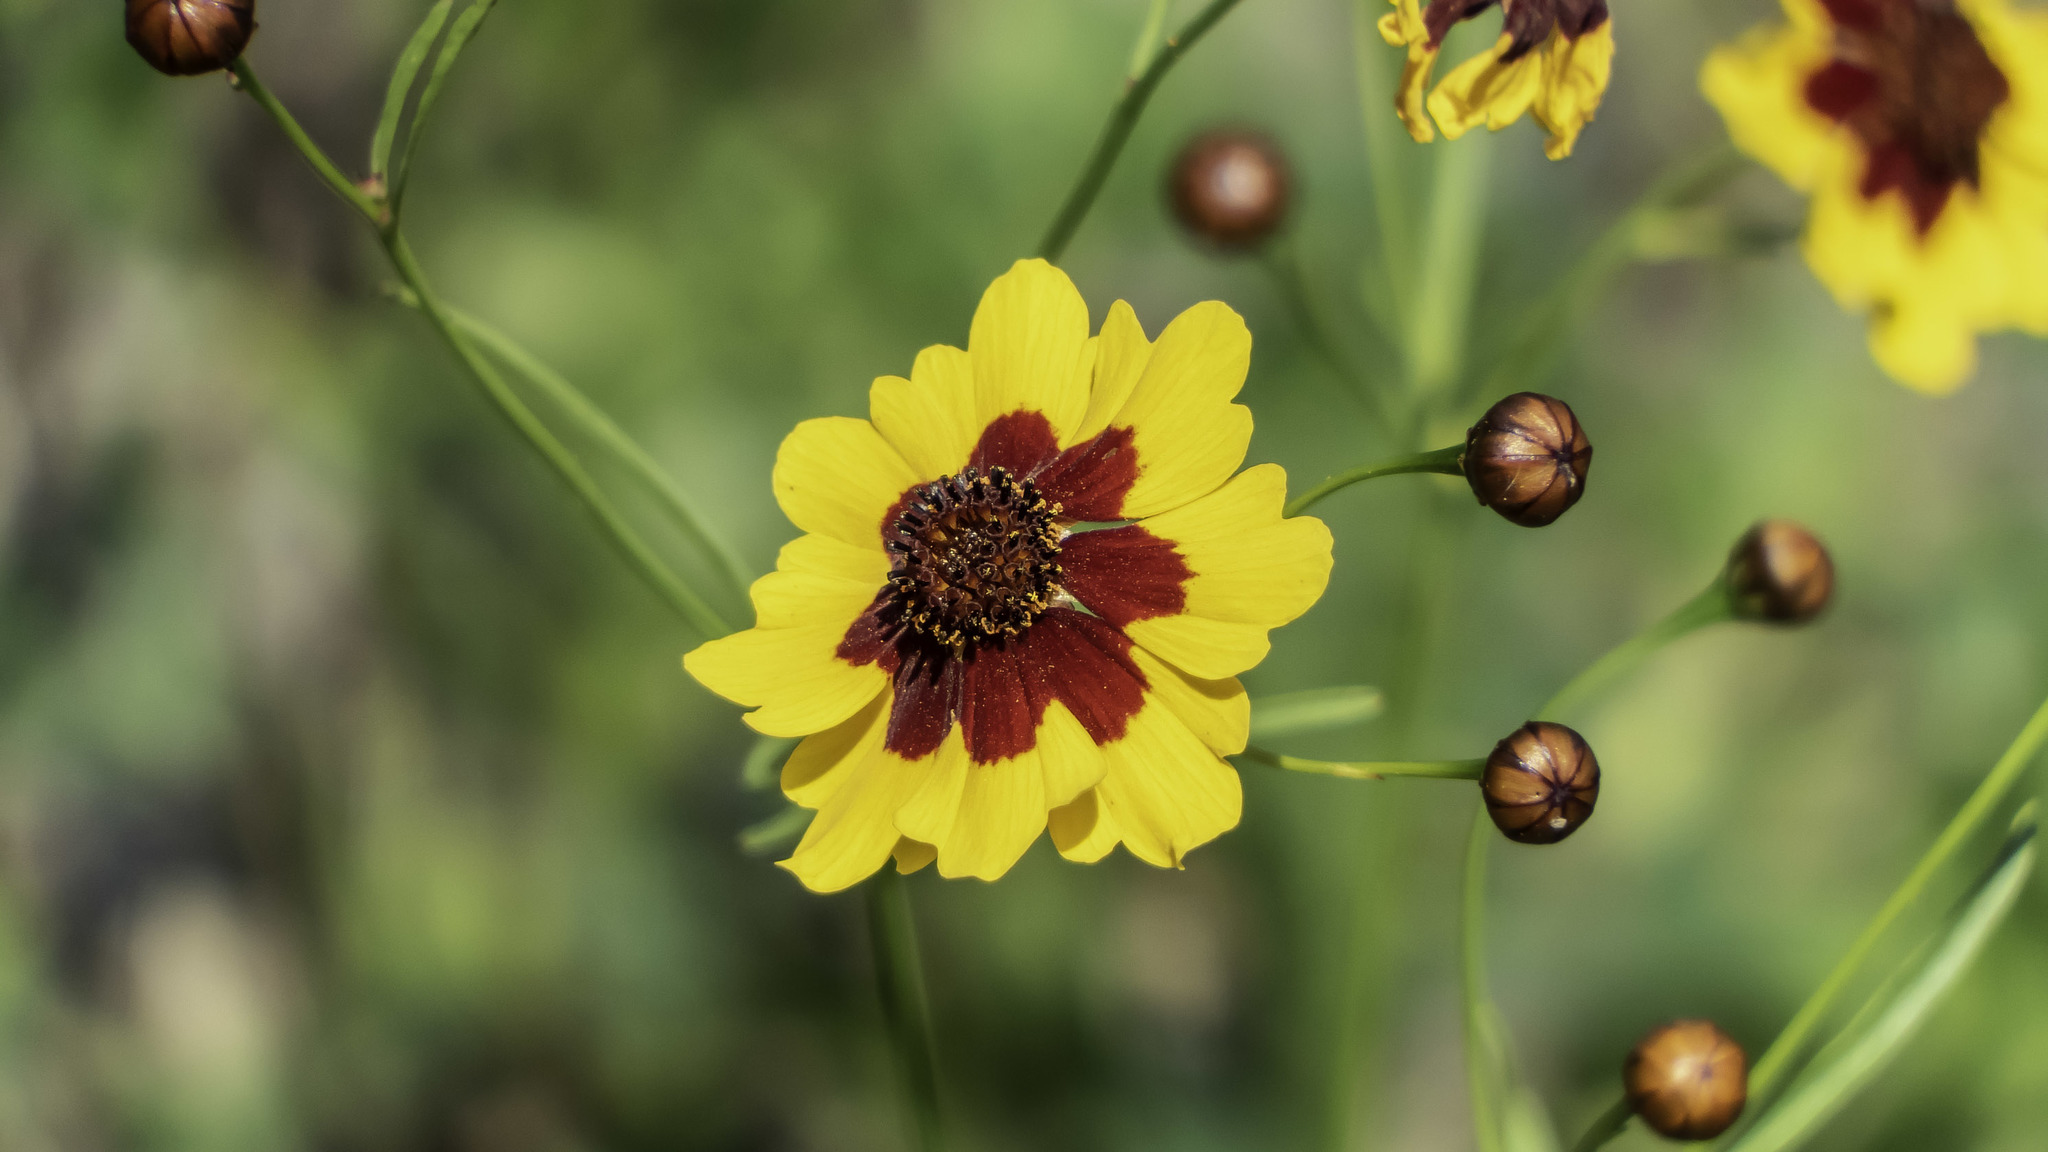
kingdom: Plantae
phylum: Tracheophyta
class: Magnoliopsida
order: Asterales
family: Asteraceae
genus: Coreopsis
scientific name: Coreopsis tinctoria
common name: Garden tickseed
